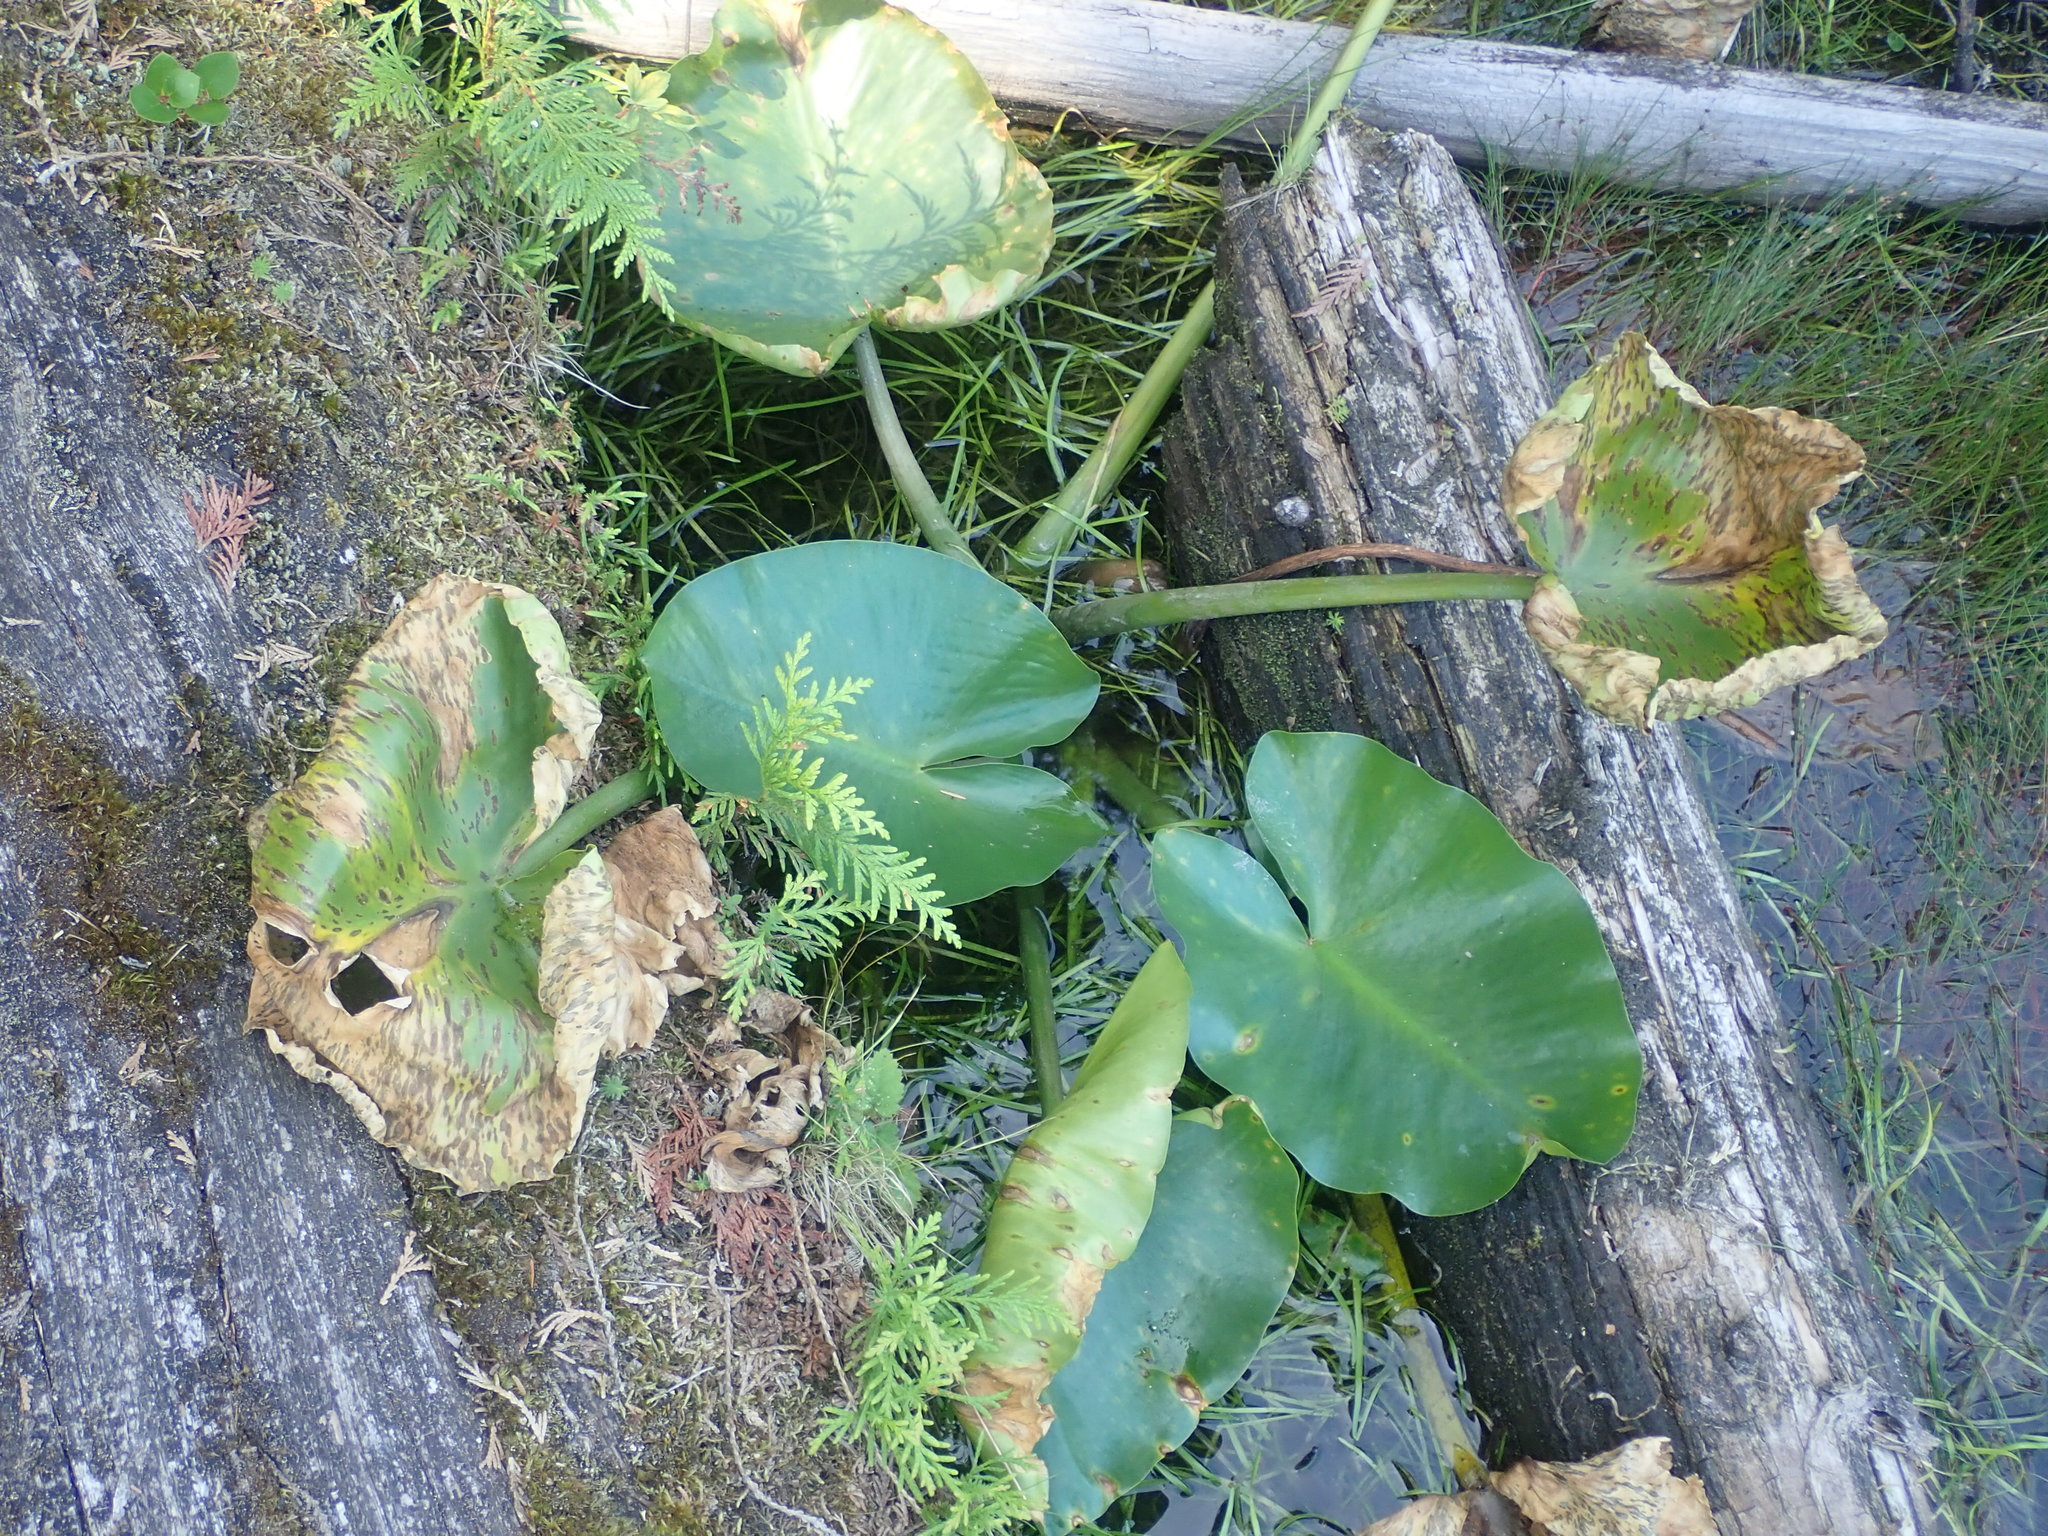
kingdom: Plantae
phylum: Tracheophyta
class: Magnoliopsida
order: Nymphaeales
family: Nymphaeaceae
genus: Nuphar
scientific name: Nuphar polysepala
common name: Rocky mountain cow-lily
